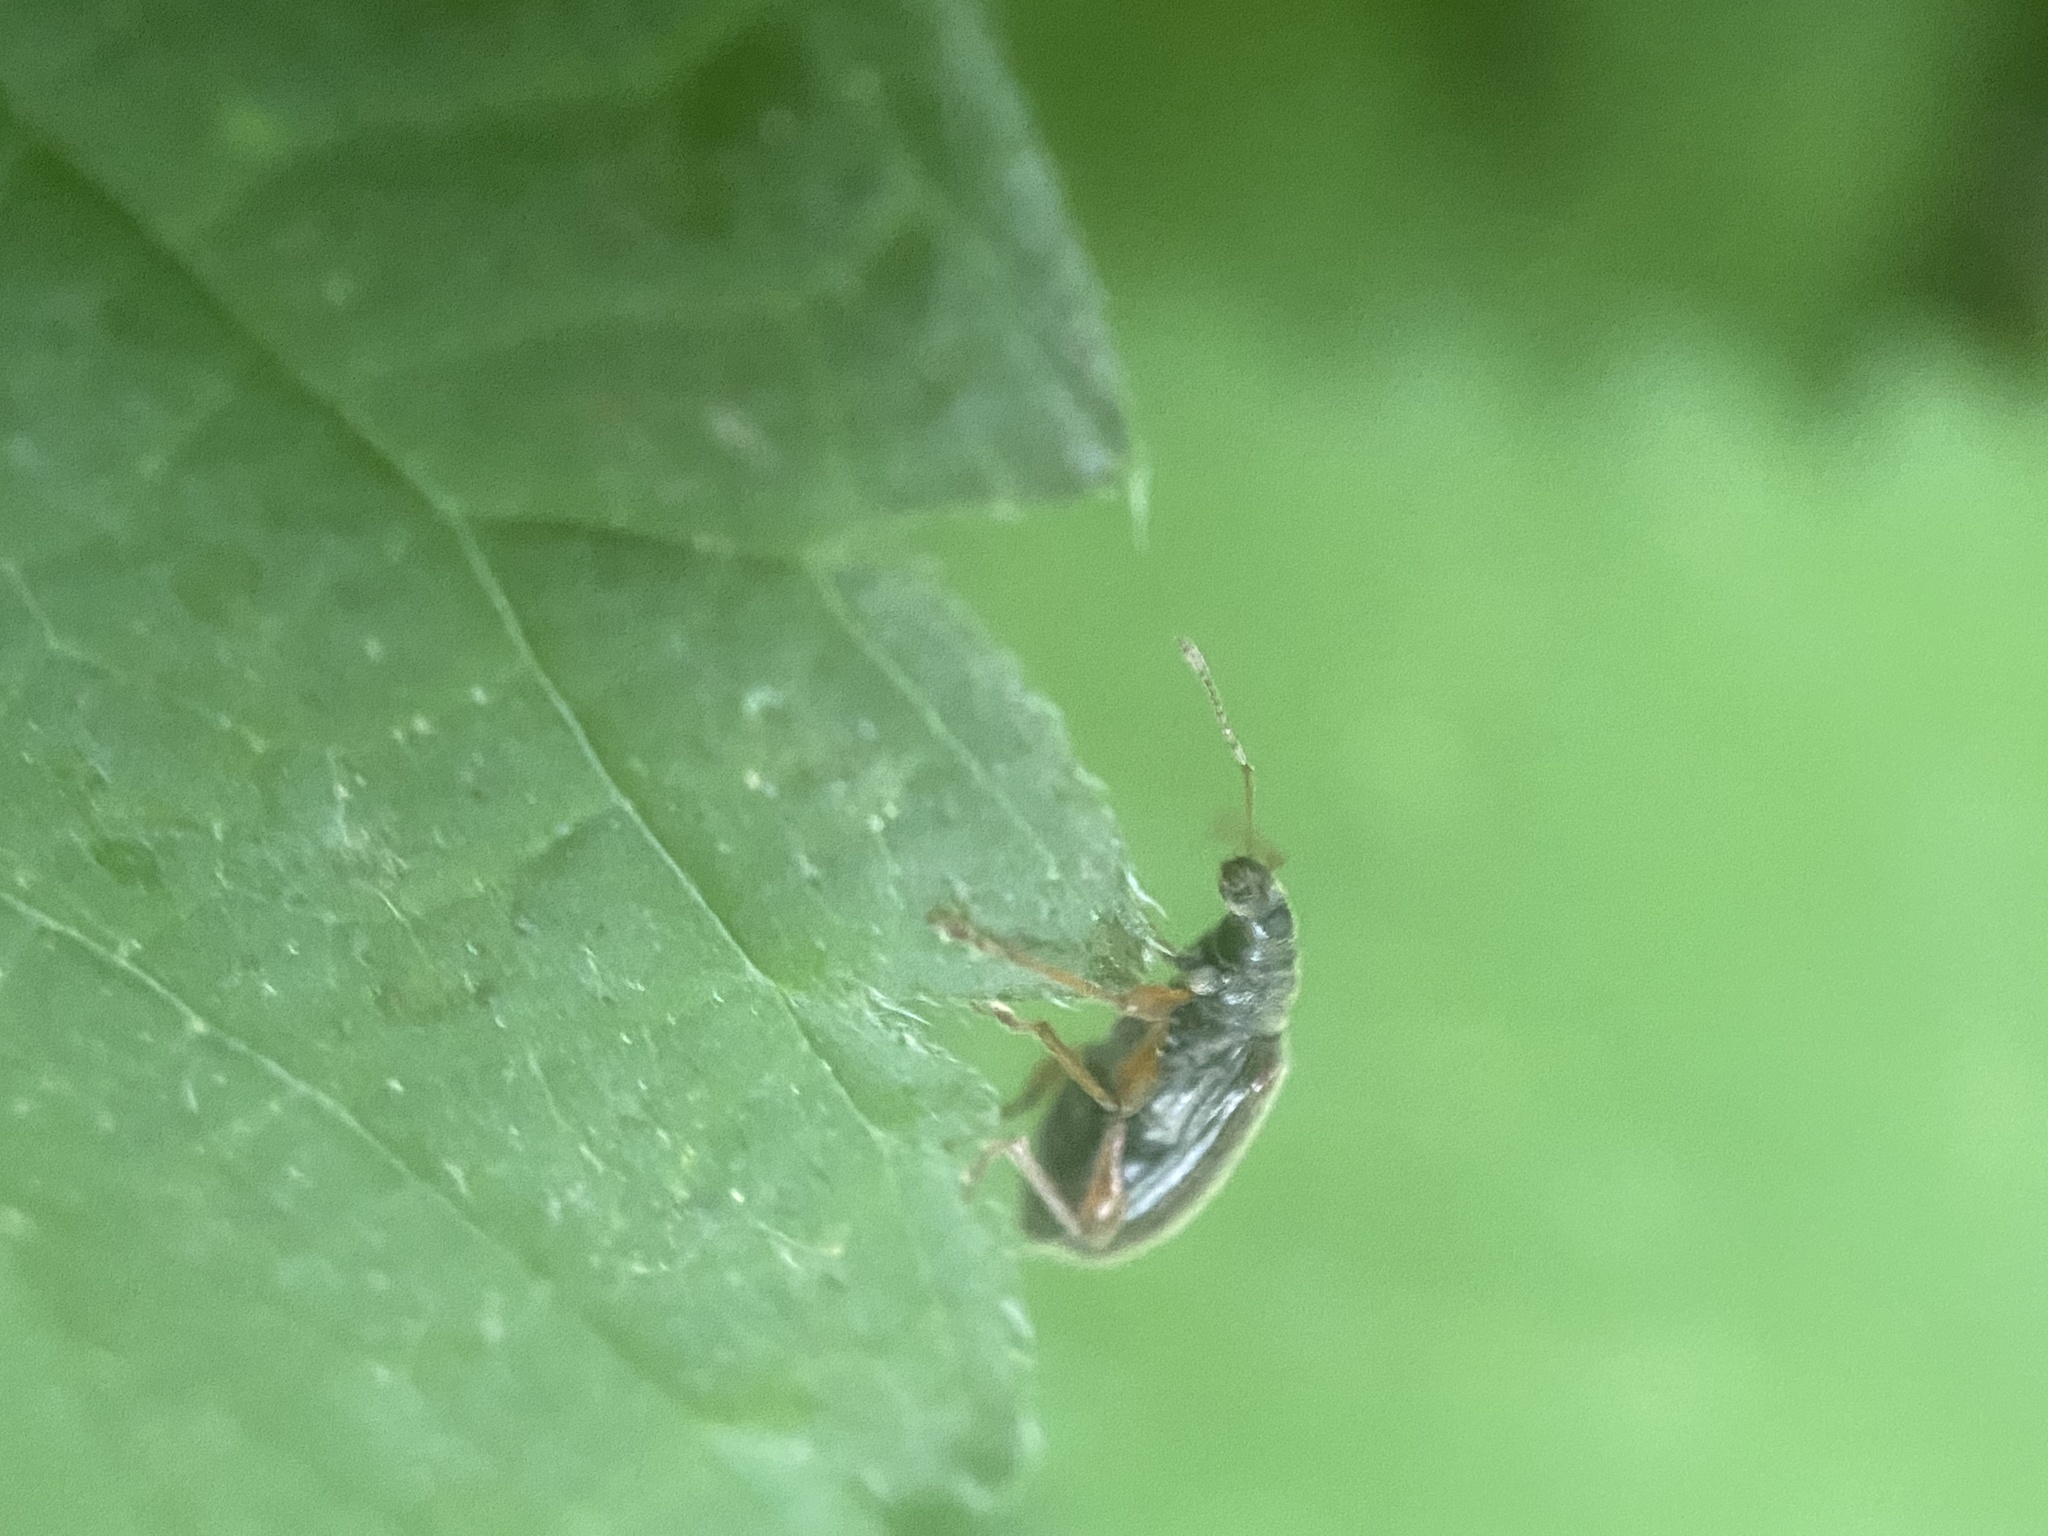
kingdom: Animalia
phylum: Arthropoda
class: Insecta
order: Coleoptera
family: Curculionidae
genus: Phyllobius
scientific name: Phyllobius oblongus
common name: Brown leaf weevil
